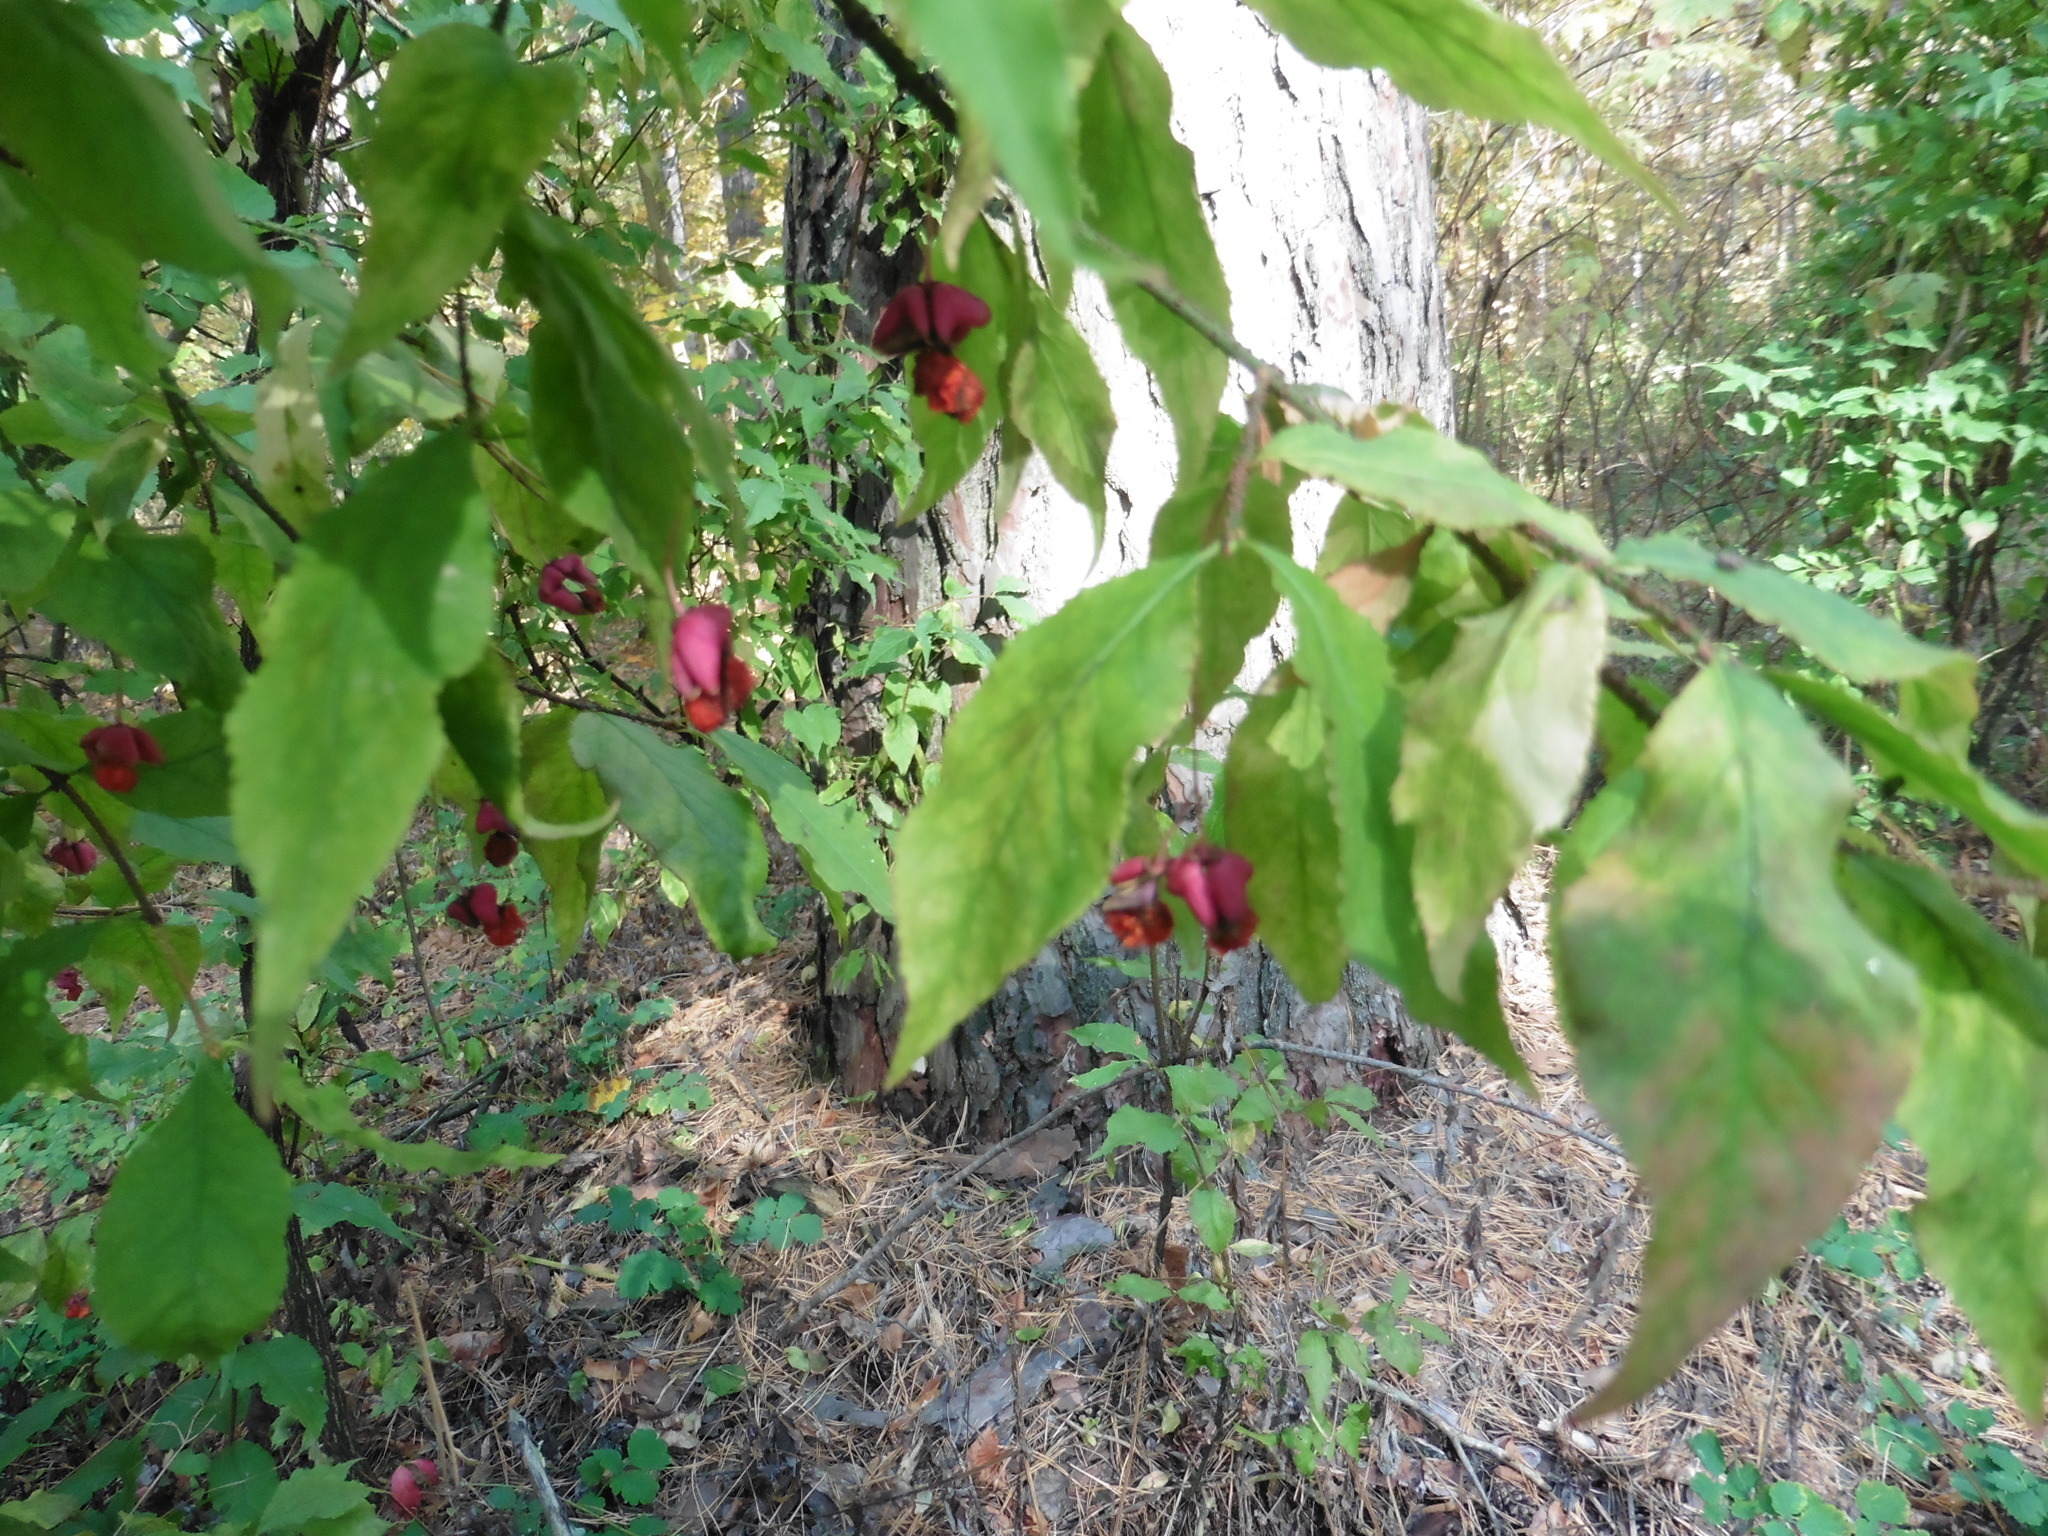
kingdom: Plantae
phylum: Tracheophyta
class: Magnoliopsida
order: Celastrales
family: Celastraceae
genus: Euonymus
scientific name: Euonymus verrucosus
